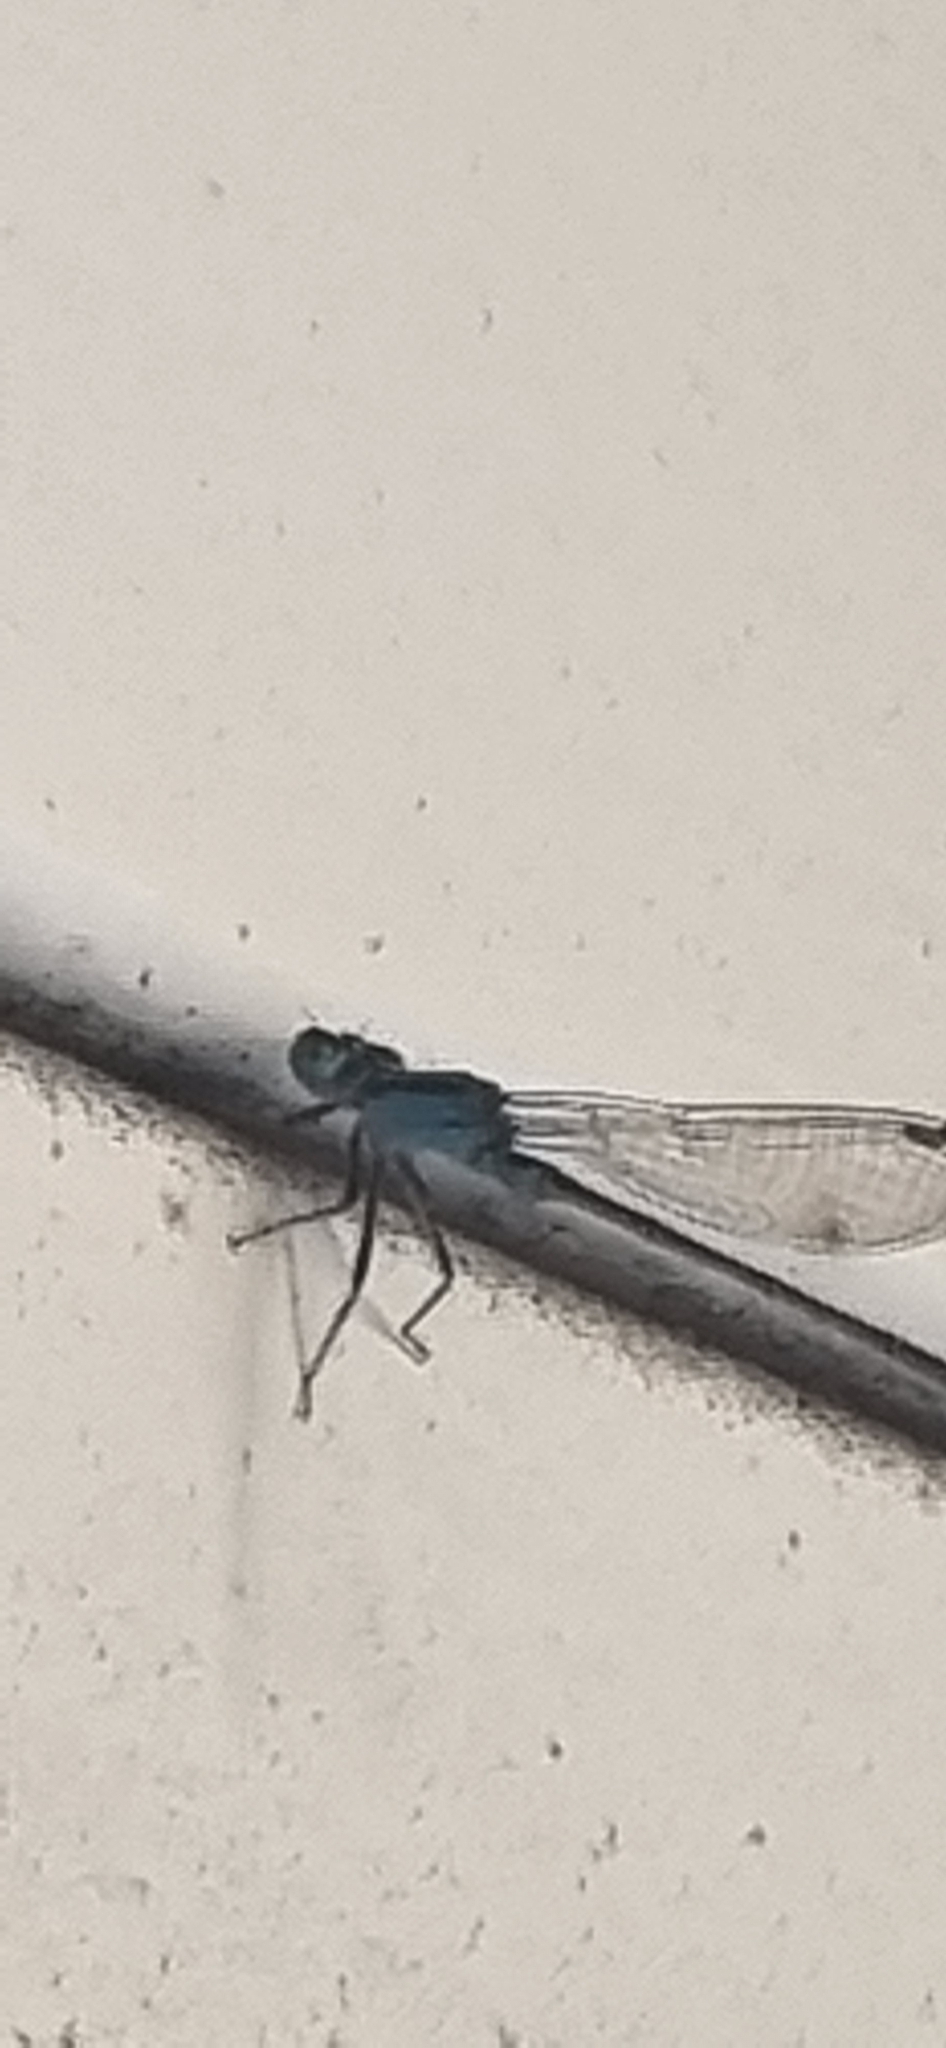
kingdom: Animalia
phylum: Arthropoda
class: Insecta
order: Odonata
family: Coenagrionidae
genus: Ischnura
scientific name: Ischnura fluviatilis
